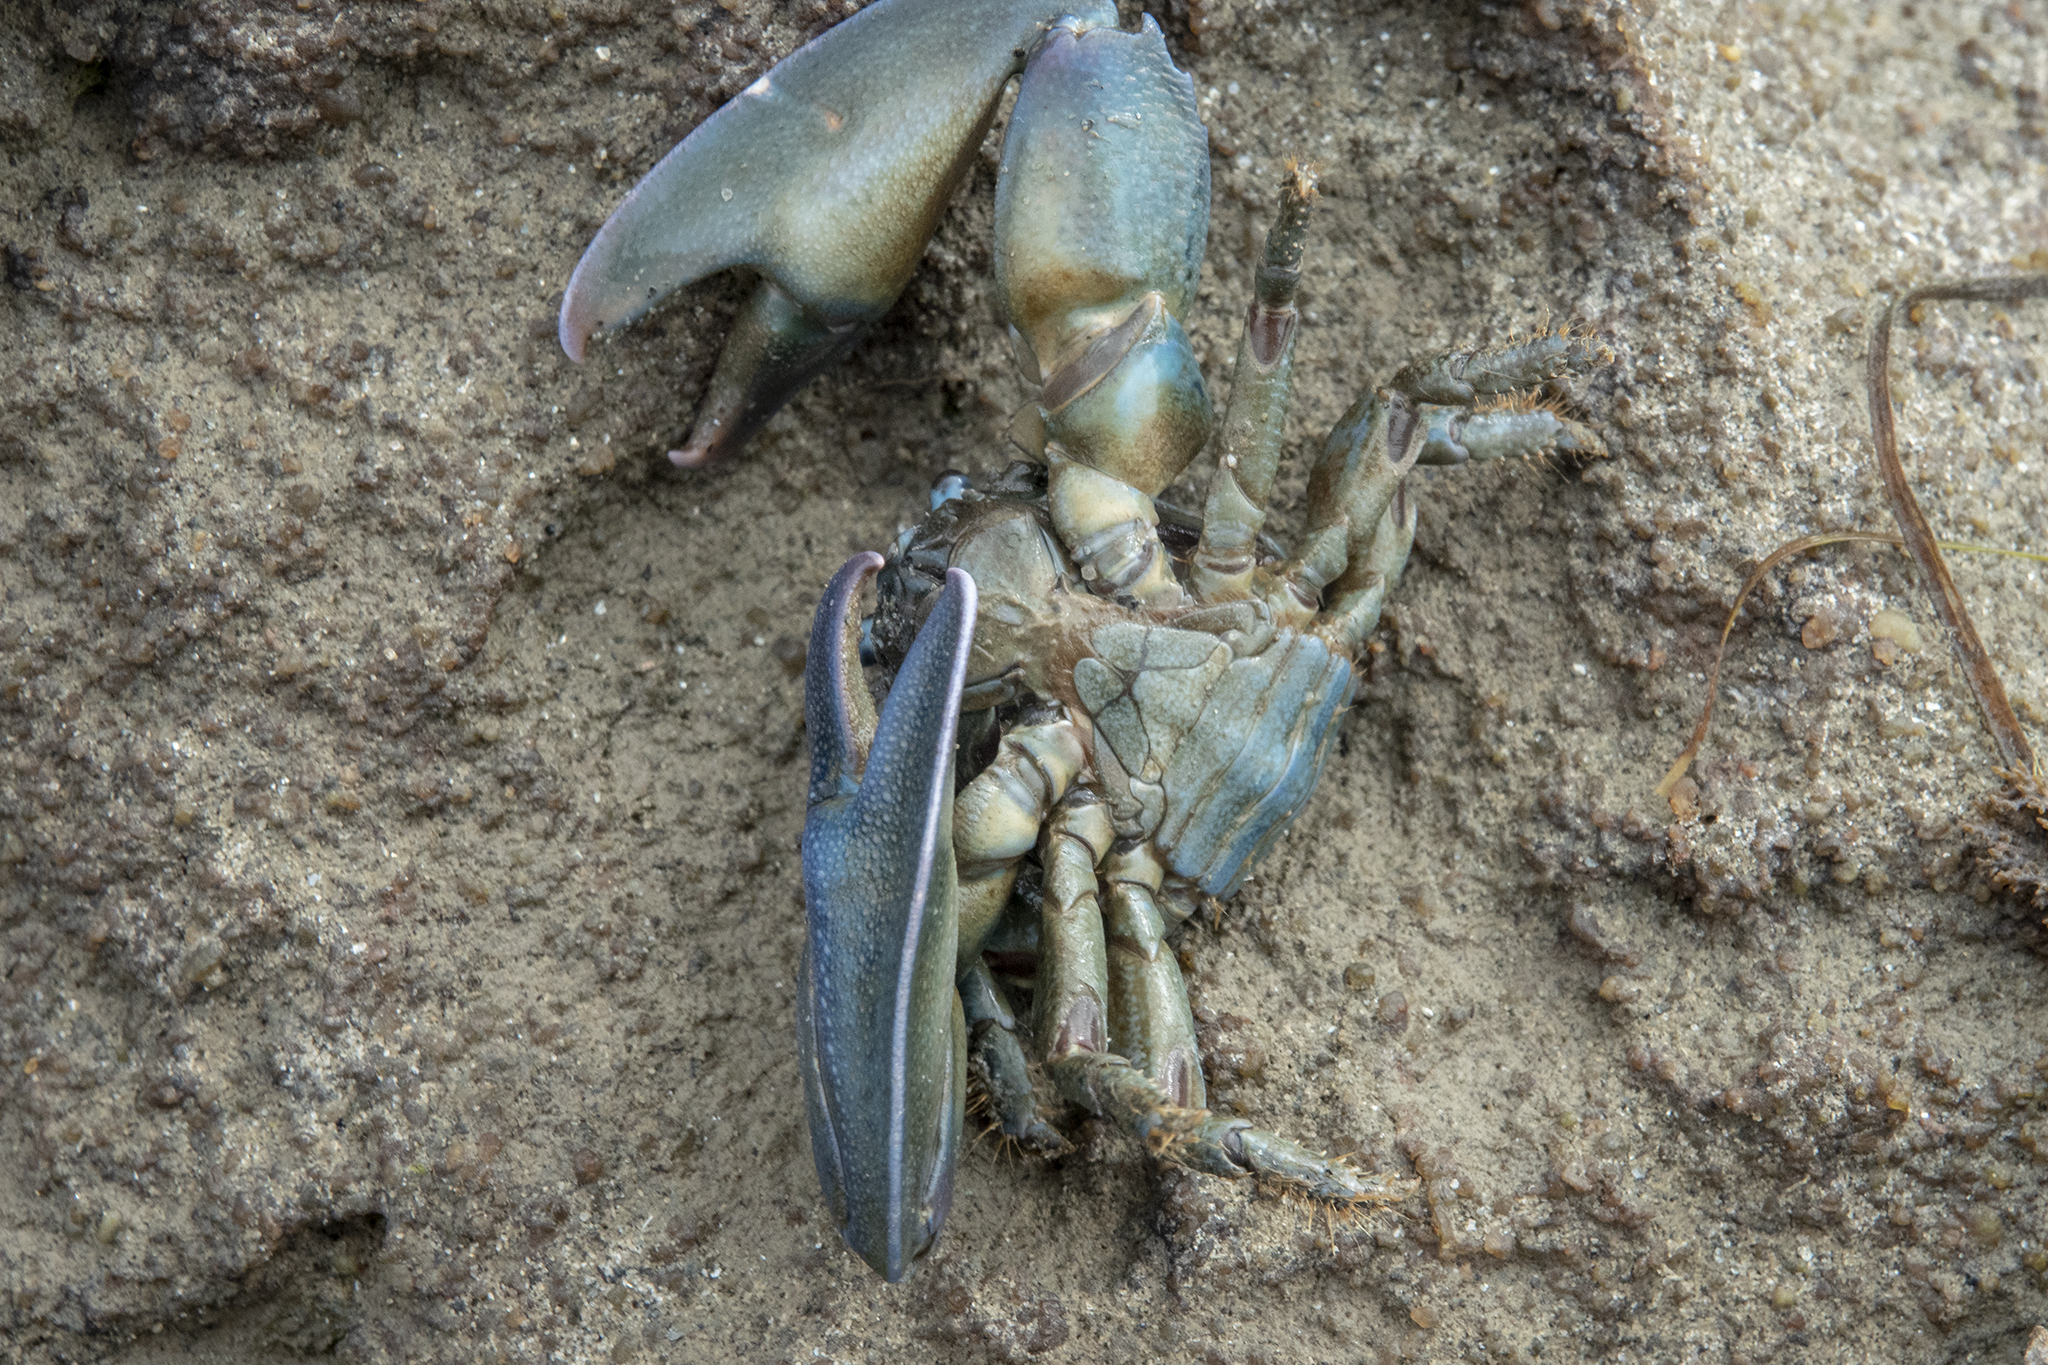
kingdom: Animalia
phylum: Arthropoda
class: Malacostraca
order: Decapoda
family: Porcellanidae
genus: Petrolisthes
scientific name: Petrolisthes elongatus
